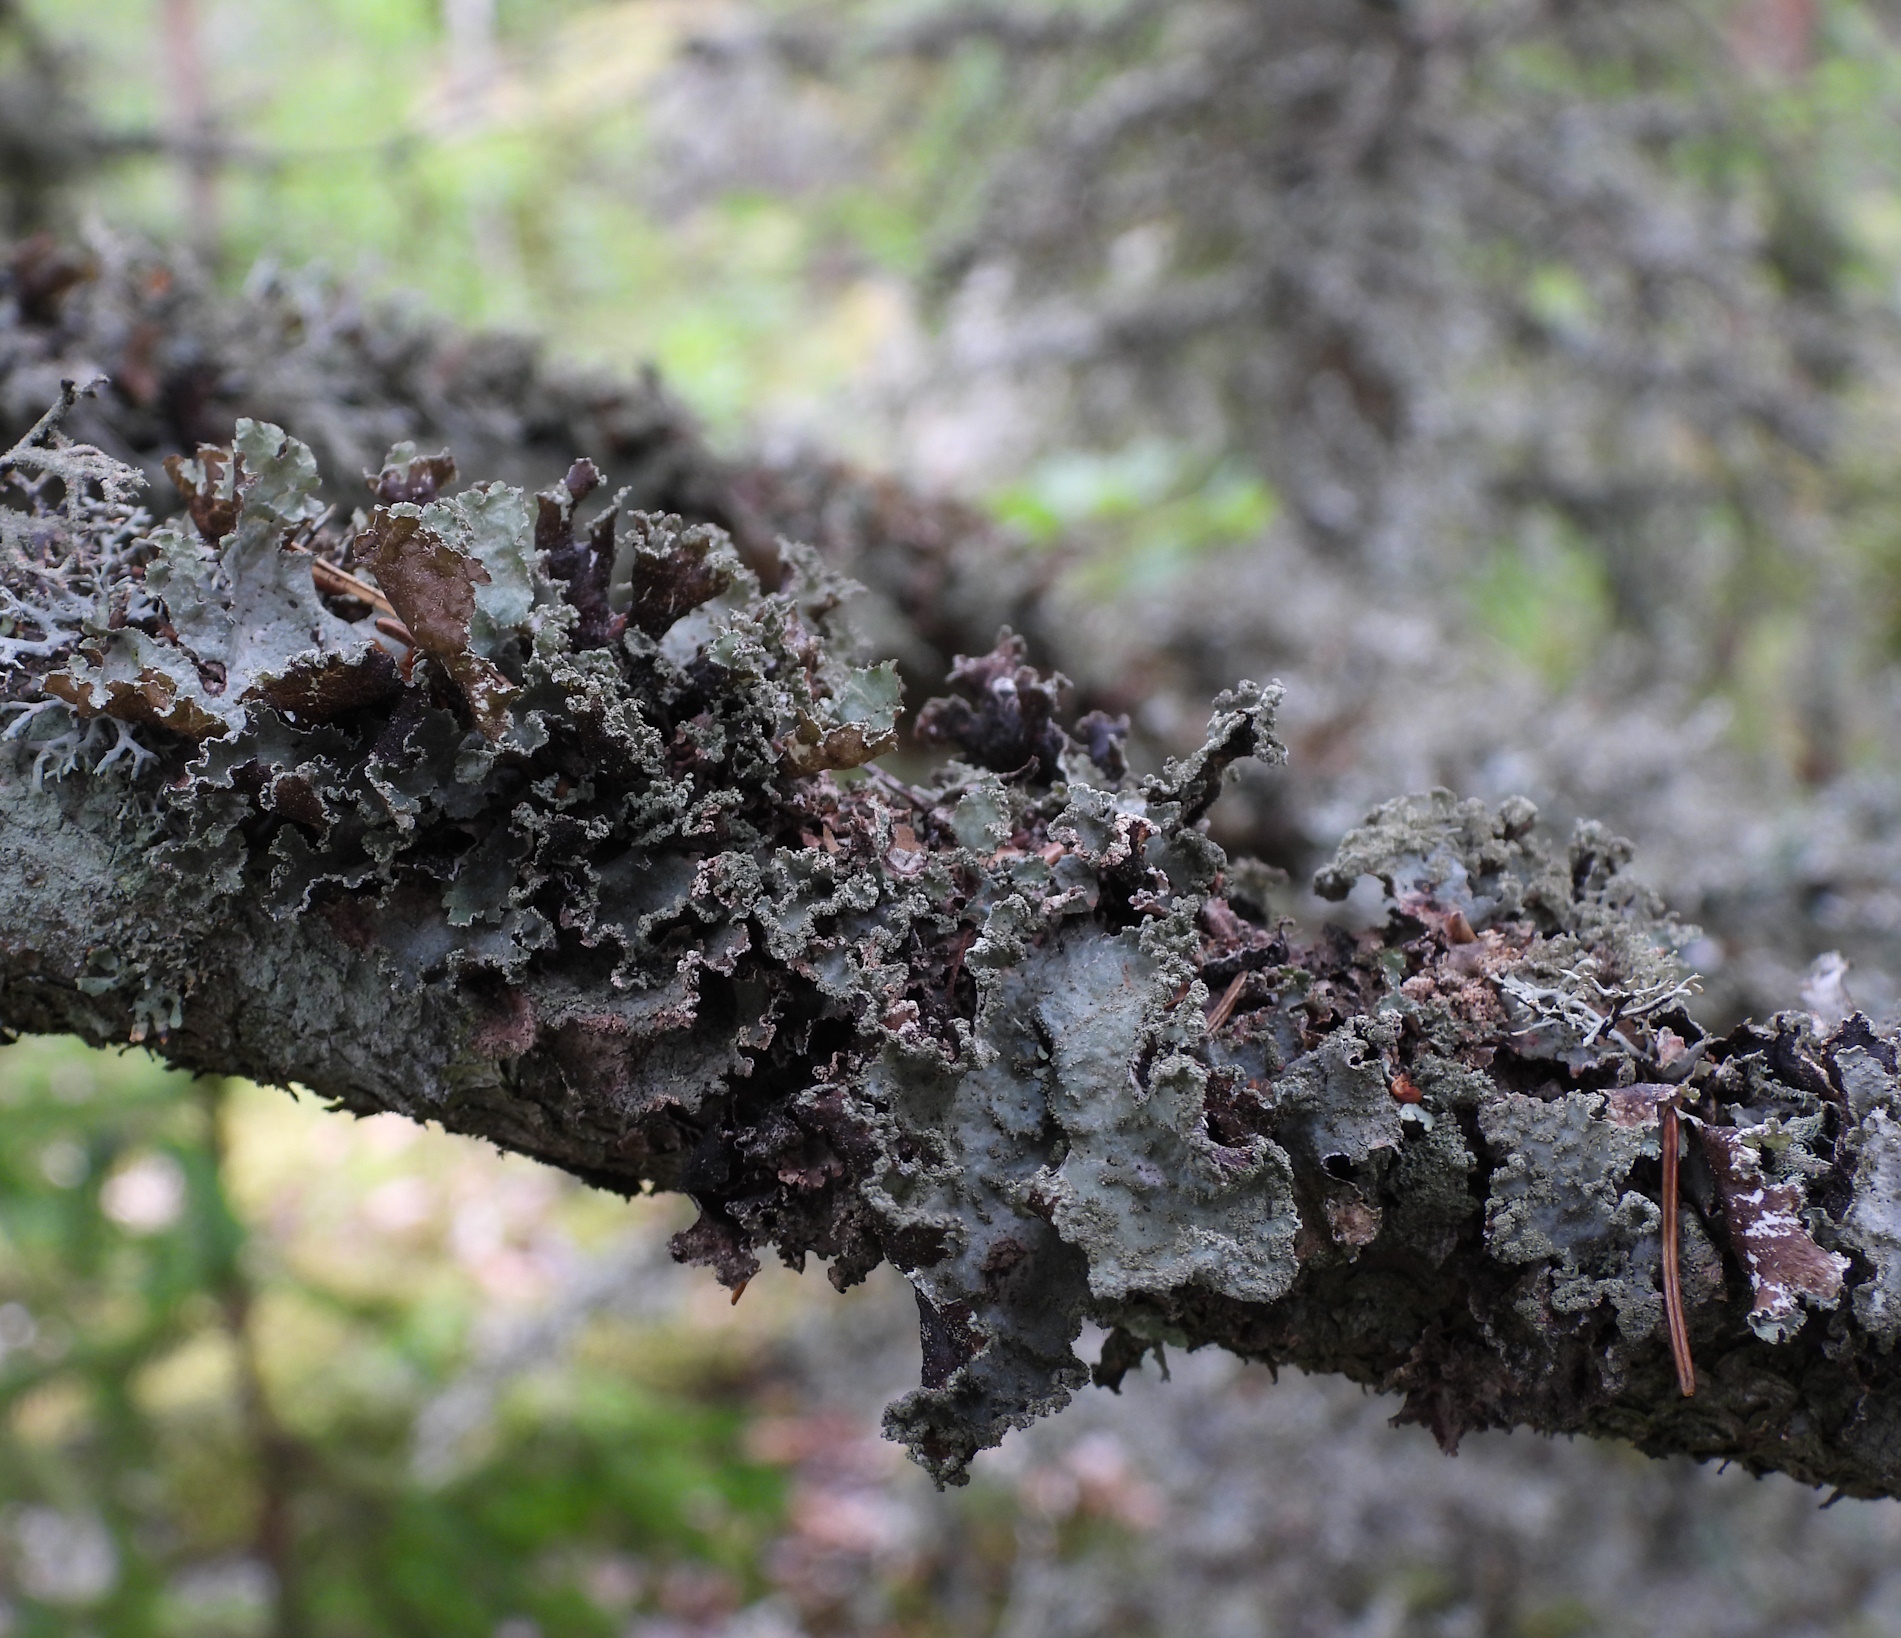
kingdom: Fungi
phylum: Ascomycota
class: Lecanoromycetes
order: Lecanorales
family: Parmeliaceae
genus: Platismatia
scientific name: Platismatia glauca
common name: Varied rag lichen
